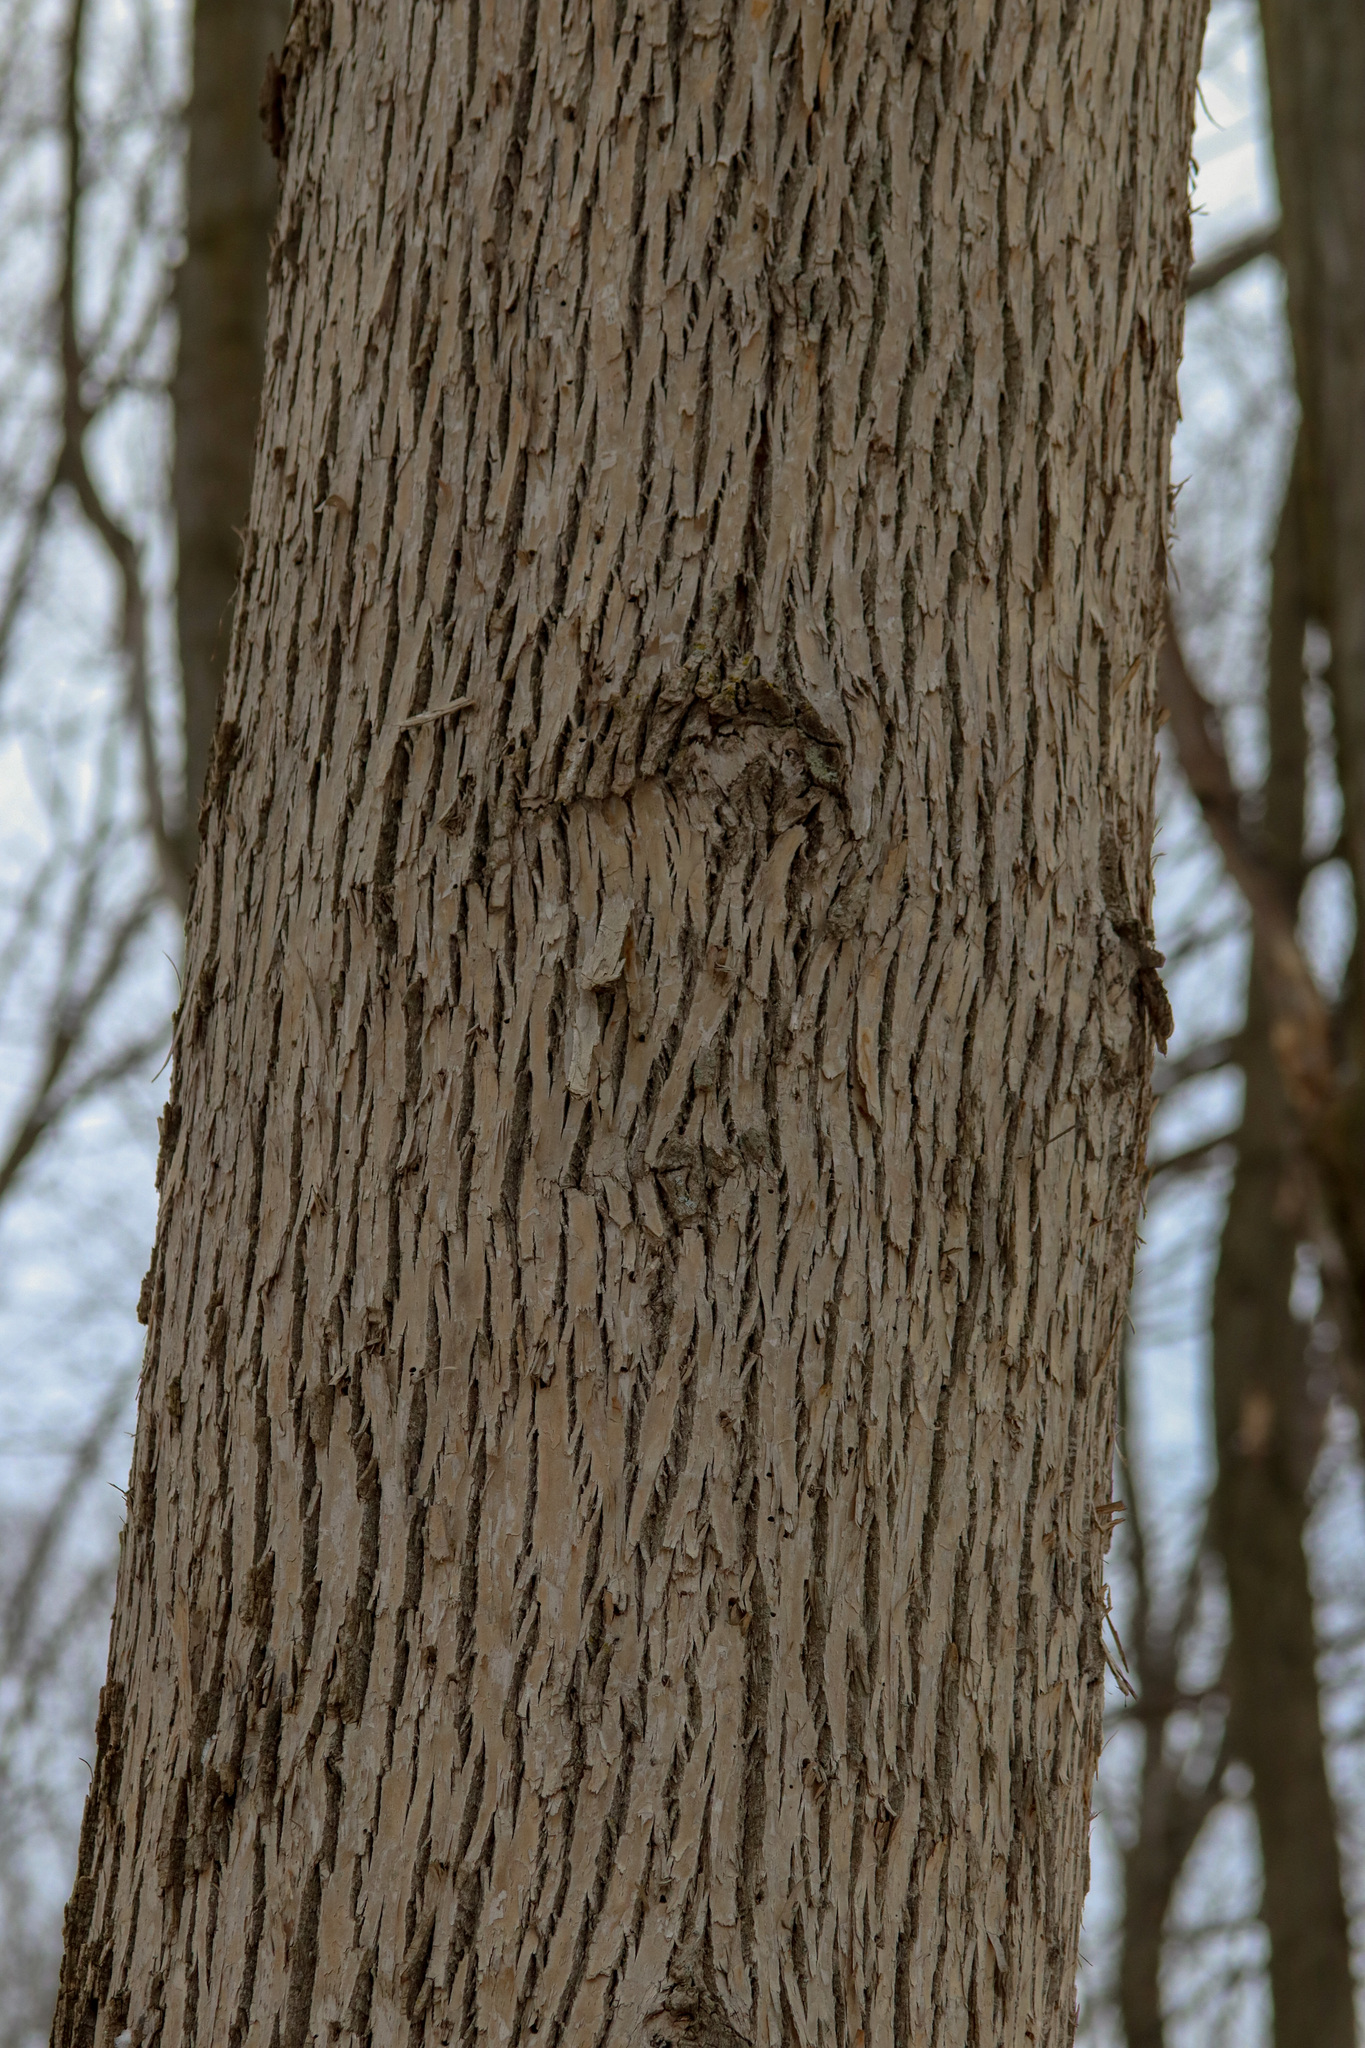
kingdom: Animalia
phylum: Arthropoda
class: Insecta
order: Coleoptera
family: Buprestidae
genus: Agrilus
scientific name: Agrilus planipennis
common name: Emerald ash borer
